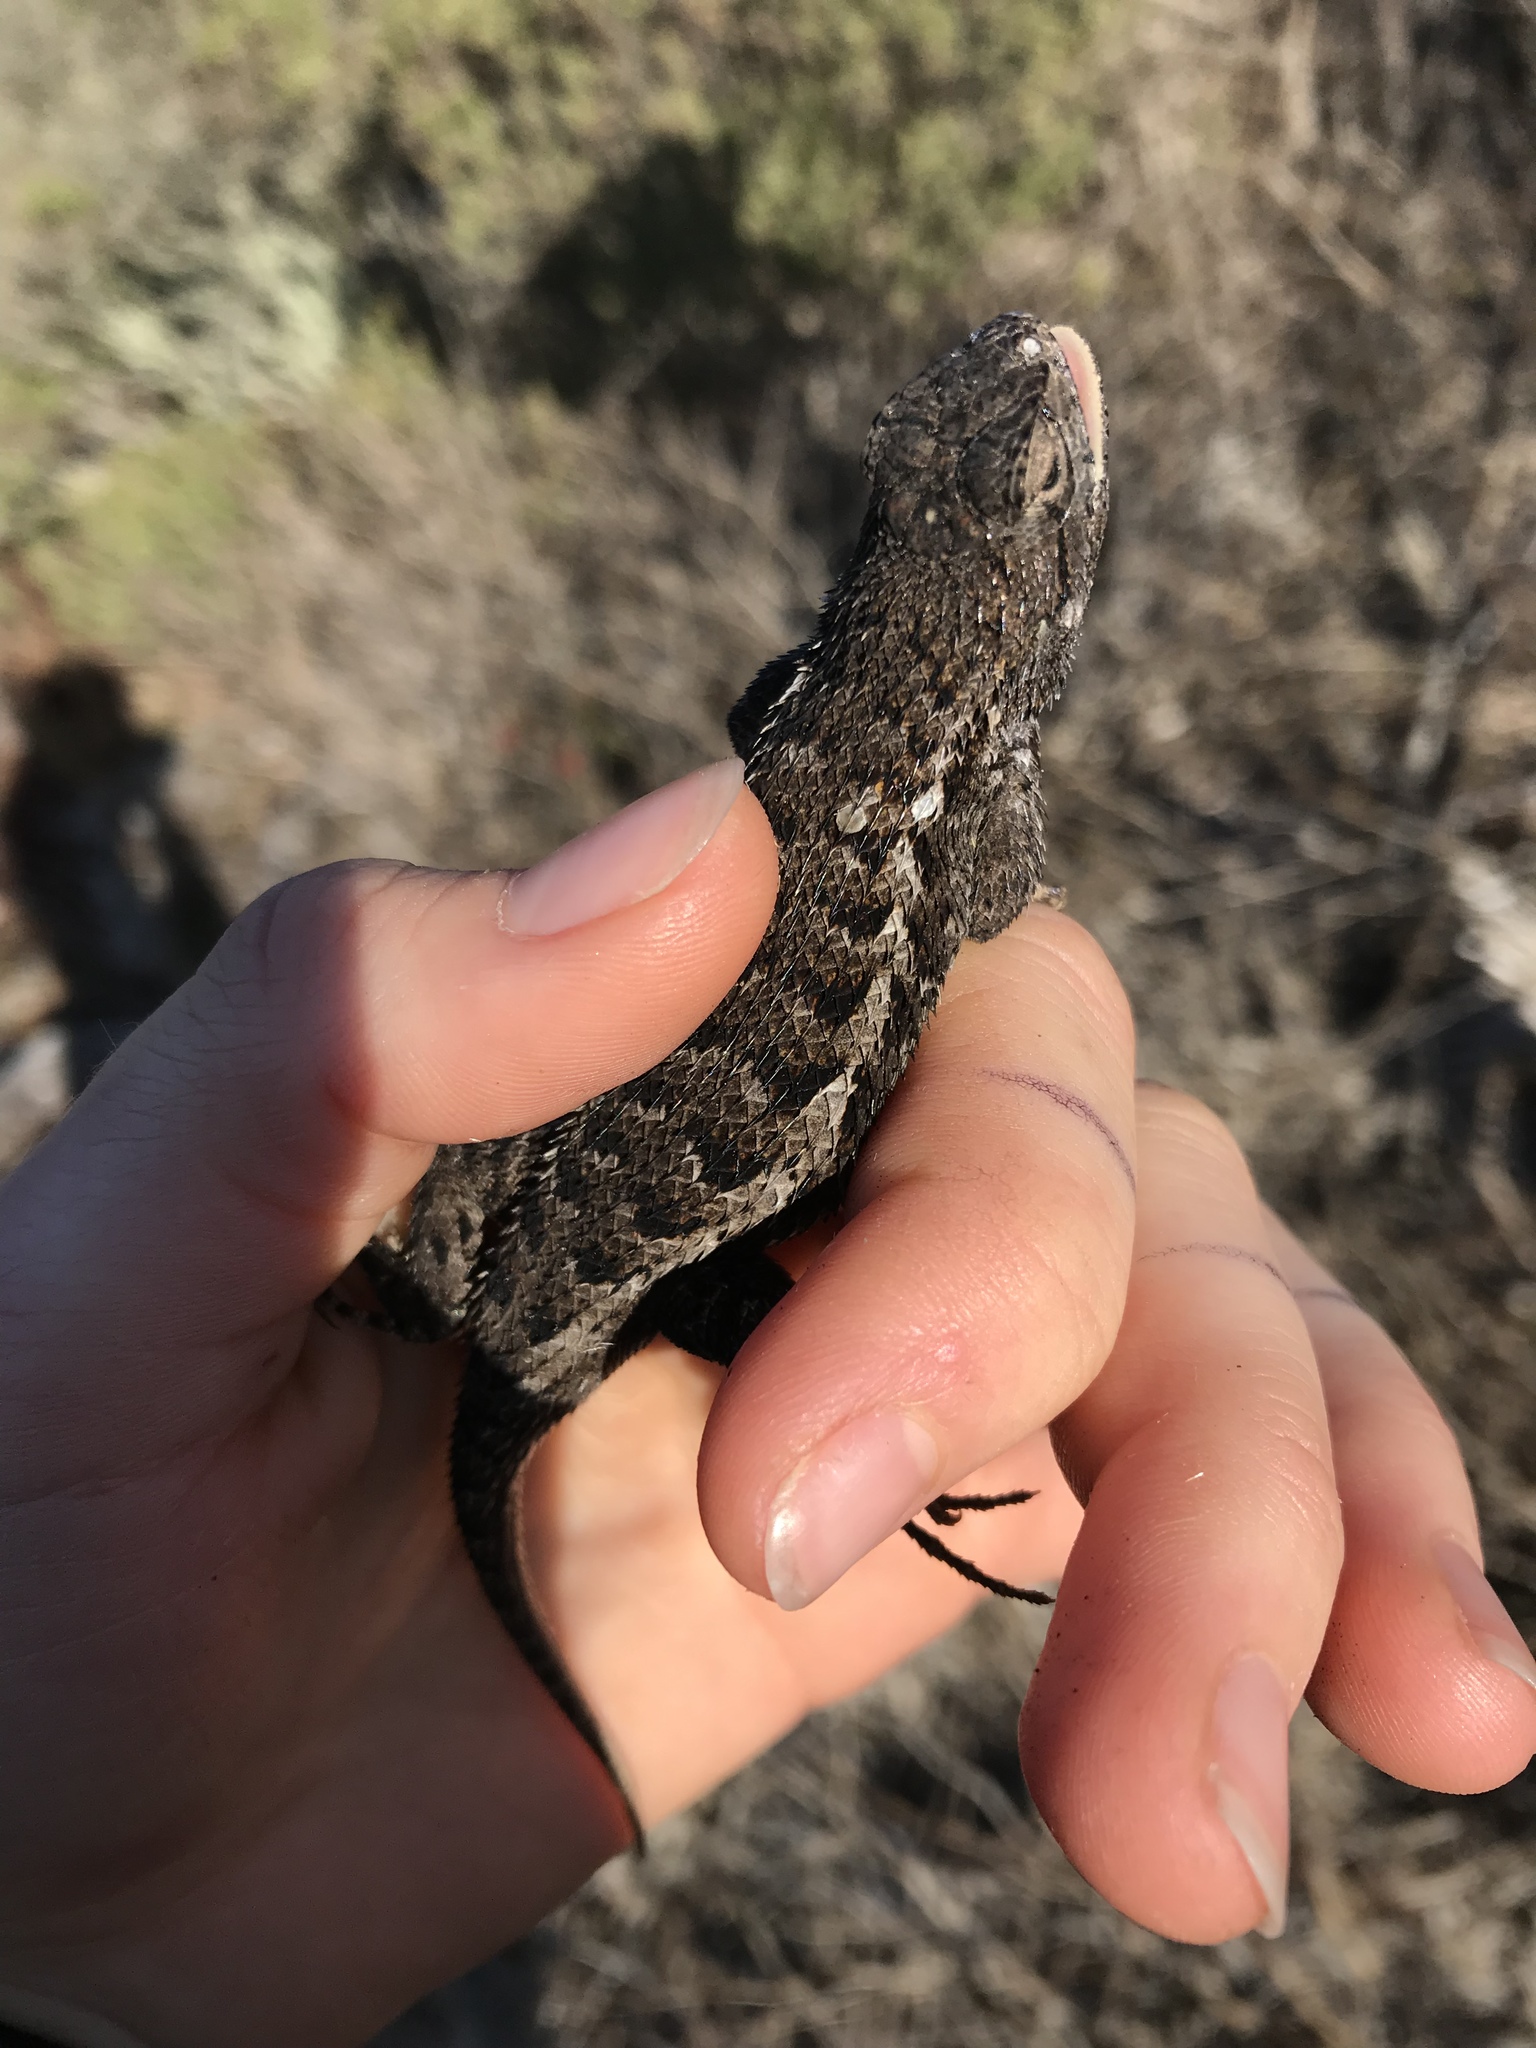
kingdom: Animalia
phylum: Chordata
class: Squamata
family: Phrynosomatidae
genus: Sceloporus
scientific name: Sceloporus occidentalis
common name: Western fence lizard
